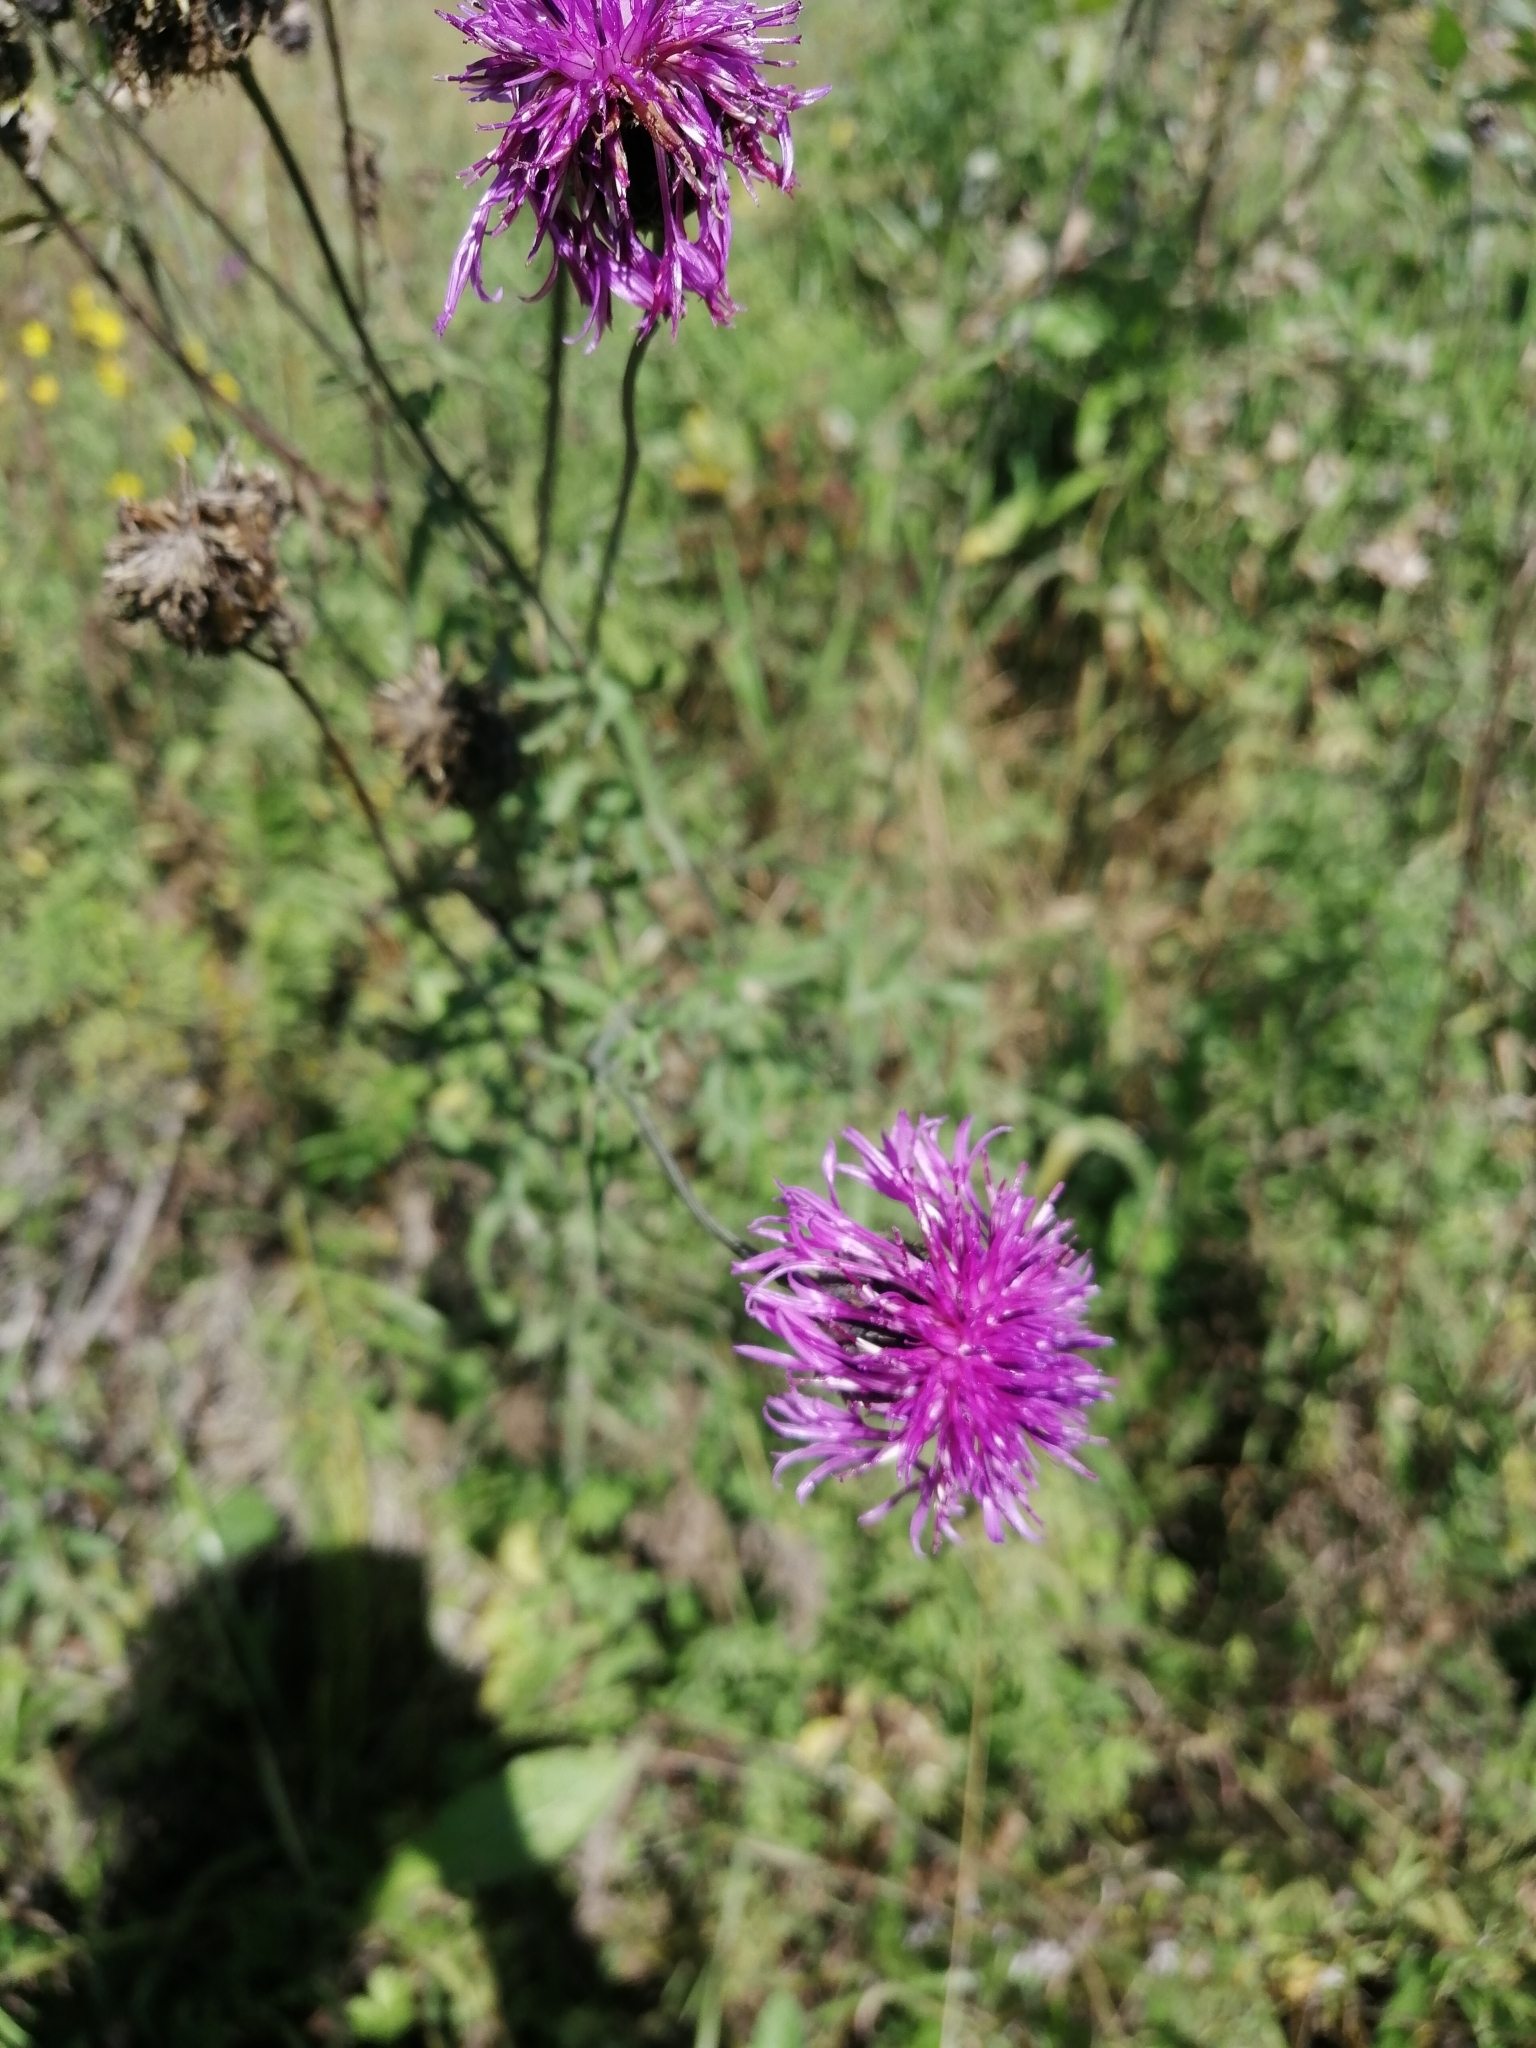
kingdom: Plantae
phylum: Tracheophyta
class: Magnoliopsida
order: Asterales
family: Asteraceae
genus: Centaurea
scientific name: Centaurea scabiosa
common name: Greater knapweed
